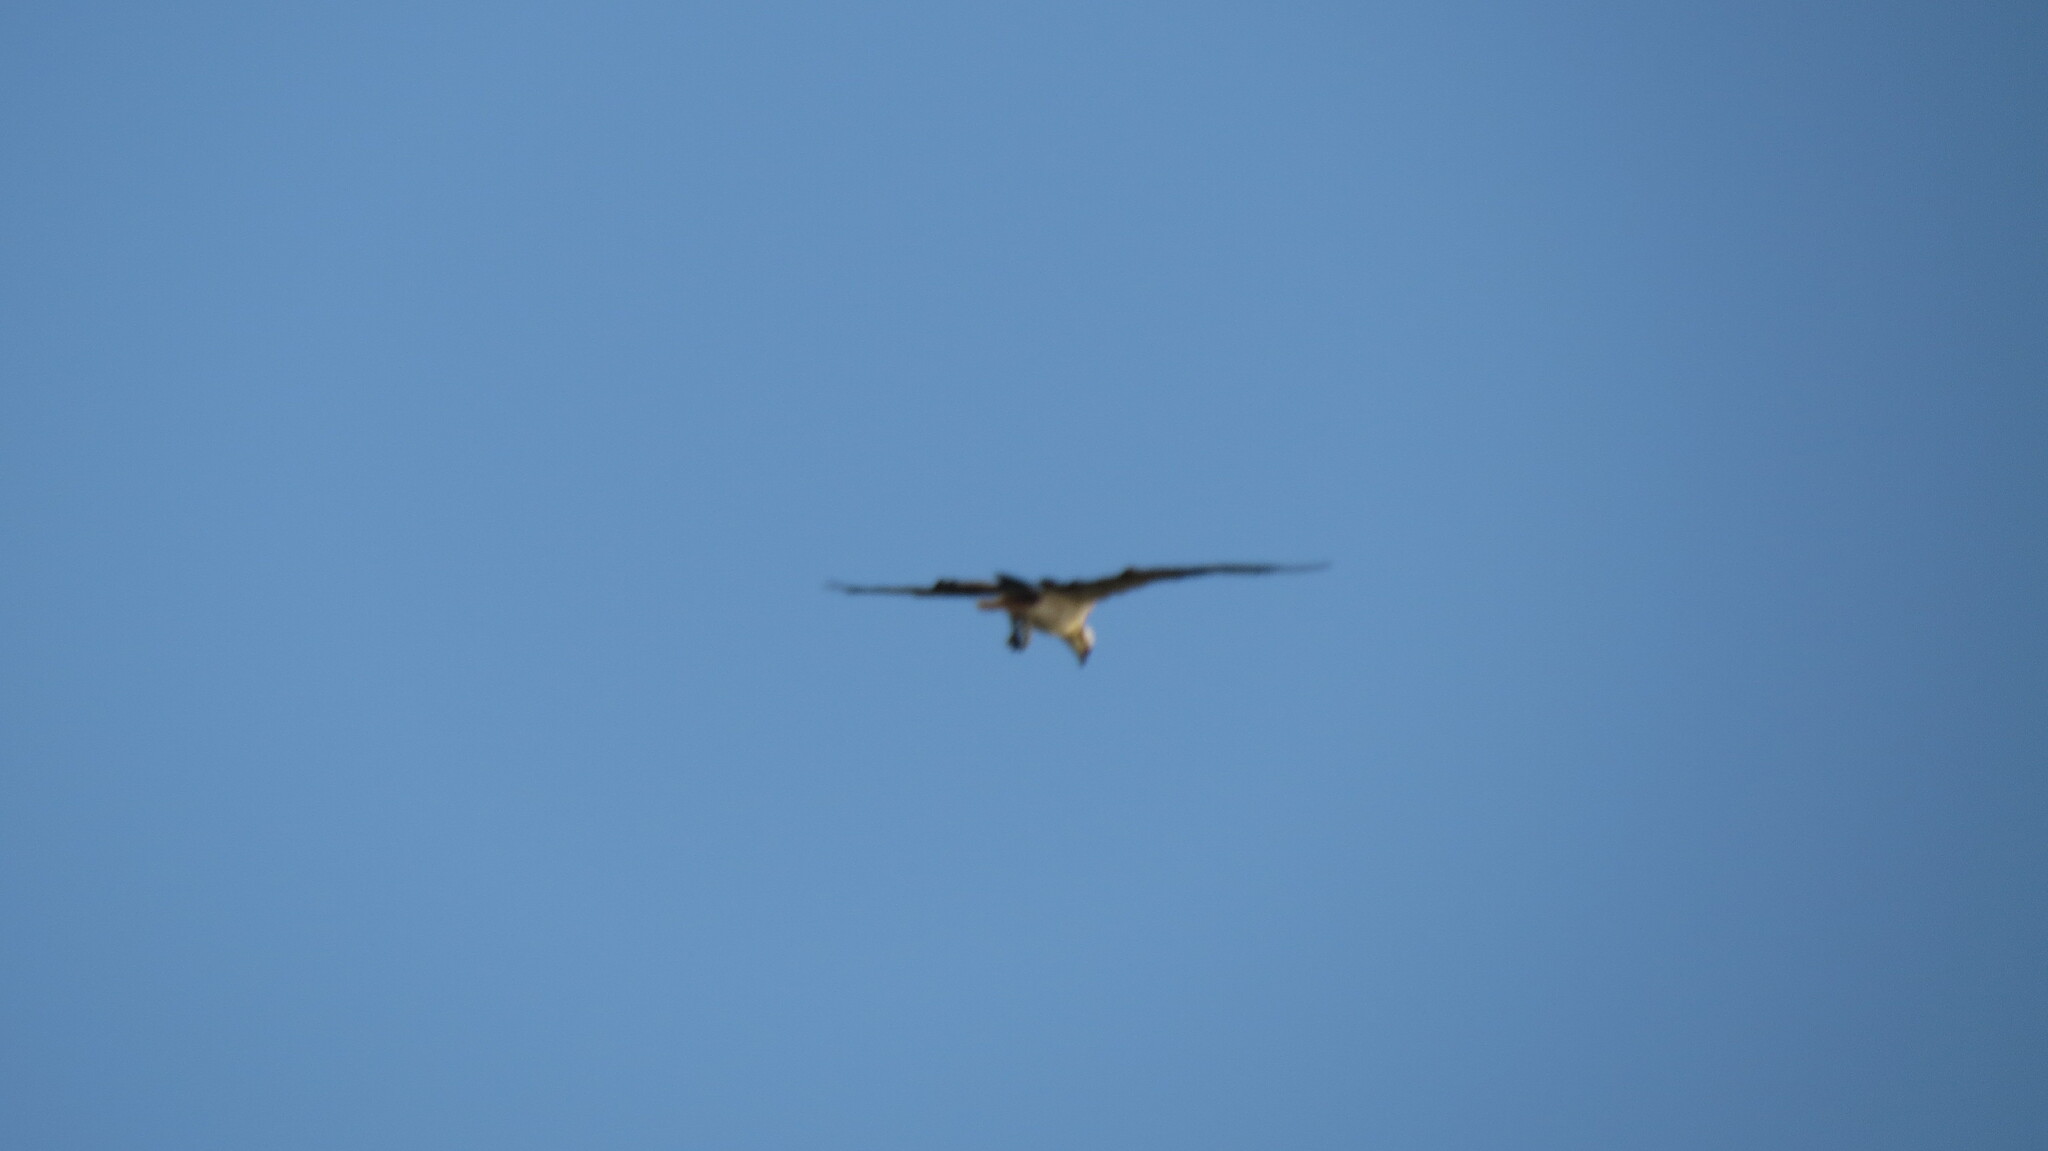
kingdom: Animalia
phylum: Chordata
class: Aves
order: Accipitriformes
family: Pandionidae
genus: Pandion
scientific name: Pandion haliaetus
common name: Osprey
